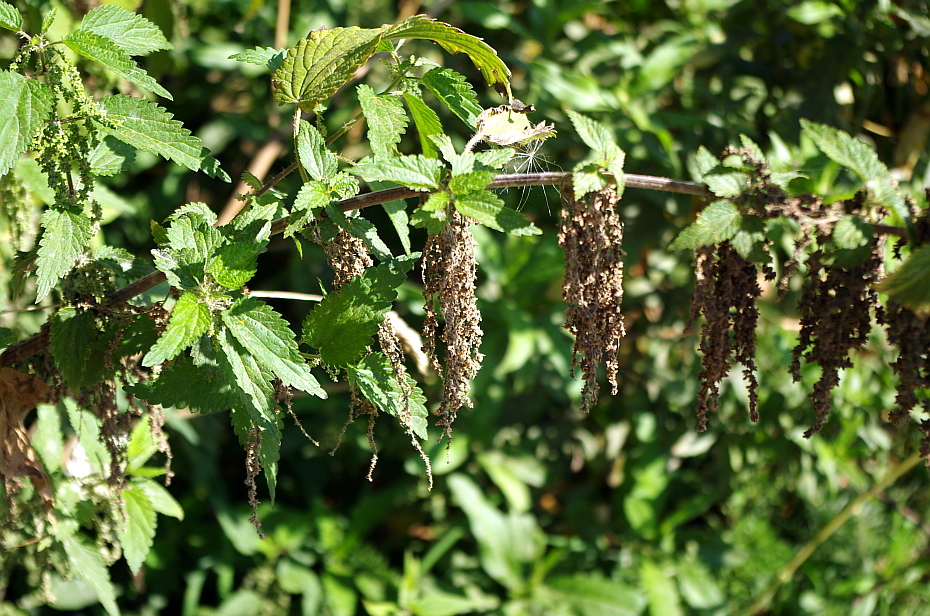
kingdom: Plantae
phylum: Tracheophyta
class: Magnoliopsida
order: Rosales
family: Urticaceae
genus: Urtica
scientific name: Urtica dioica
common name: Common nettle
